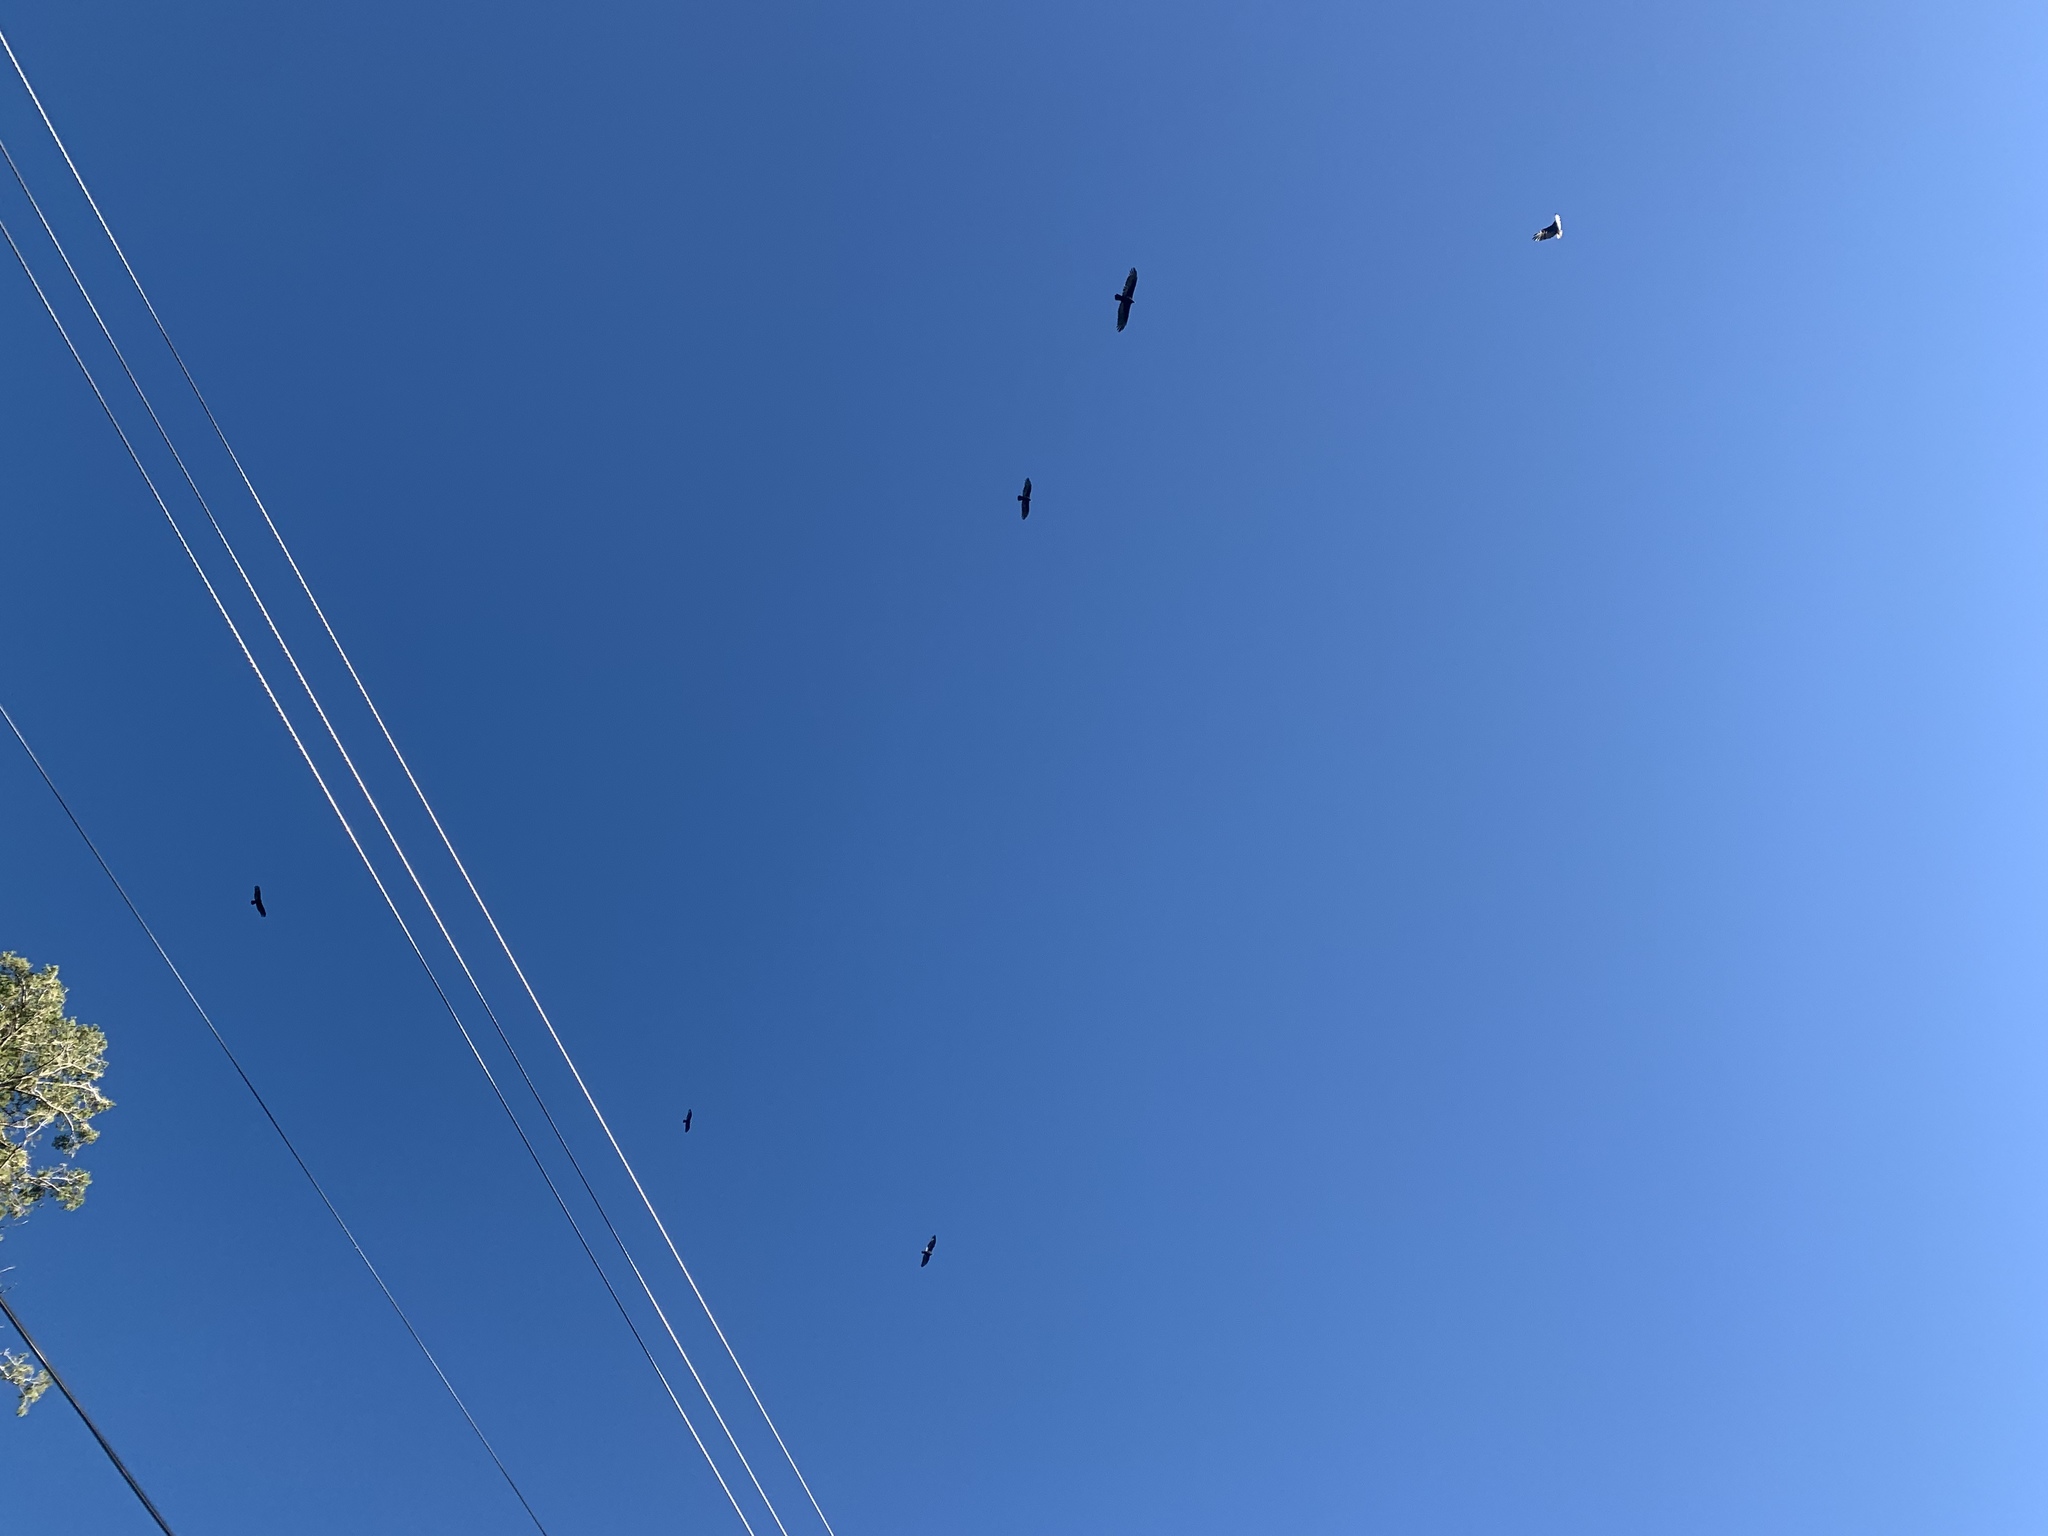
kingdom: Animalia
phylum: Chordata
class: Aves
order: Accipitriformes
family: Cathartidae
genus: Cathartes
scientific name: Cathartes aura
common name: Turkey vulture
